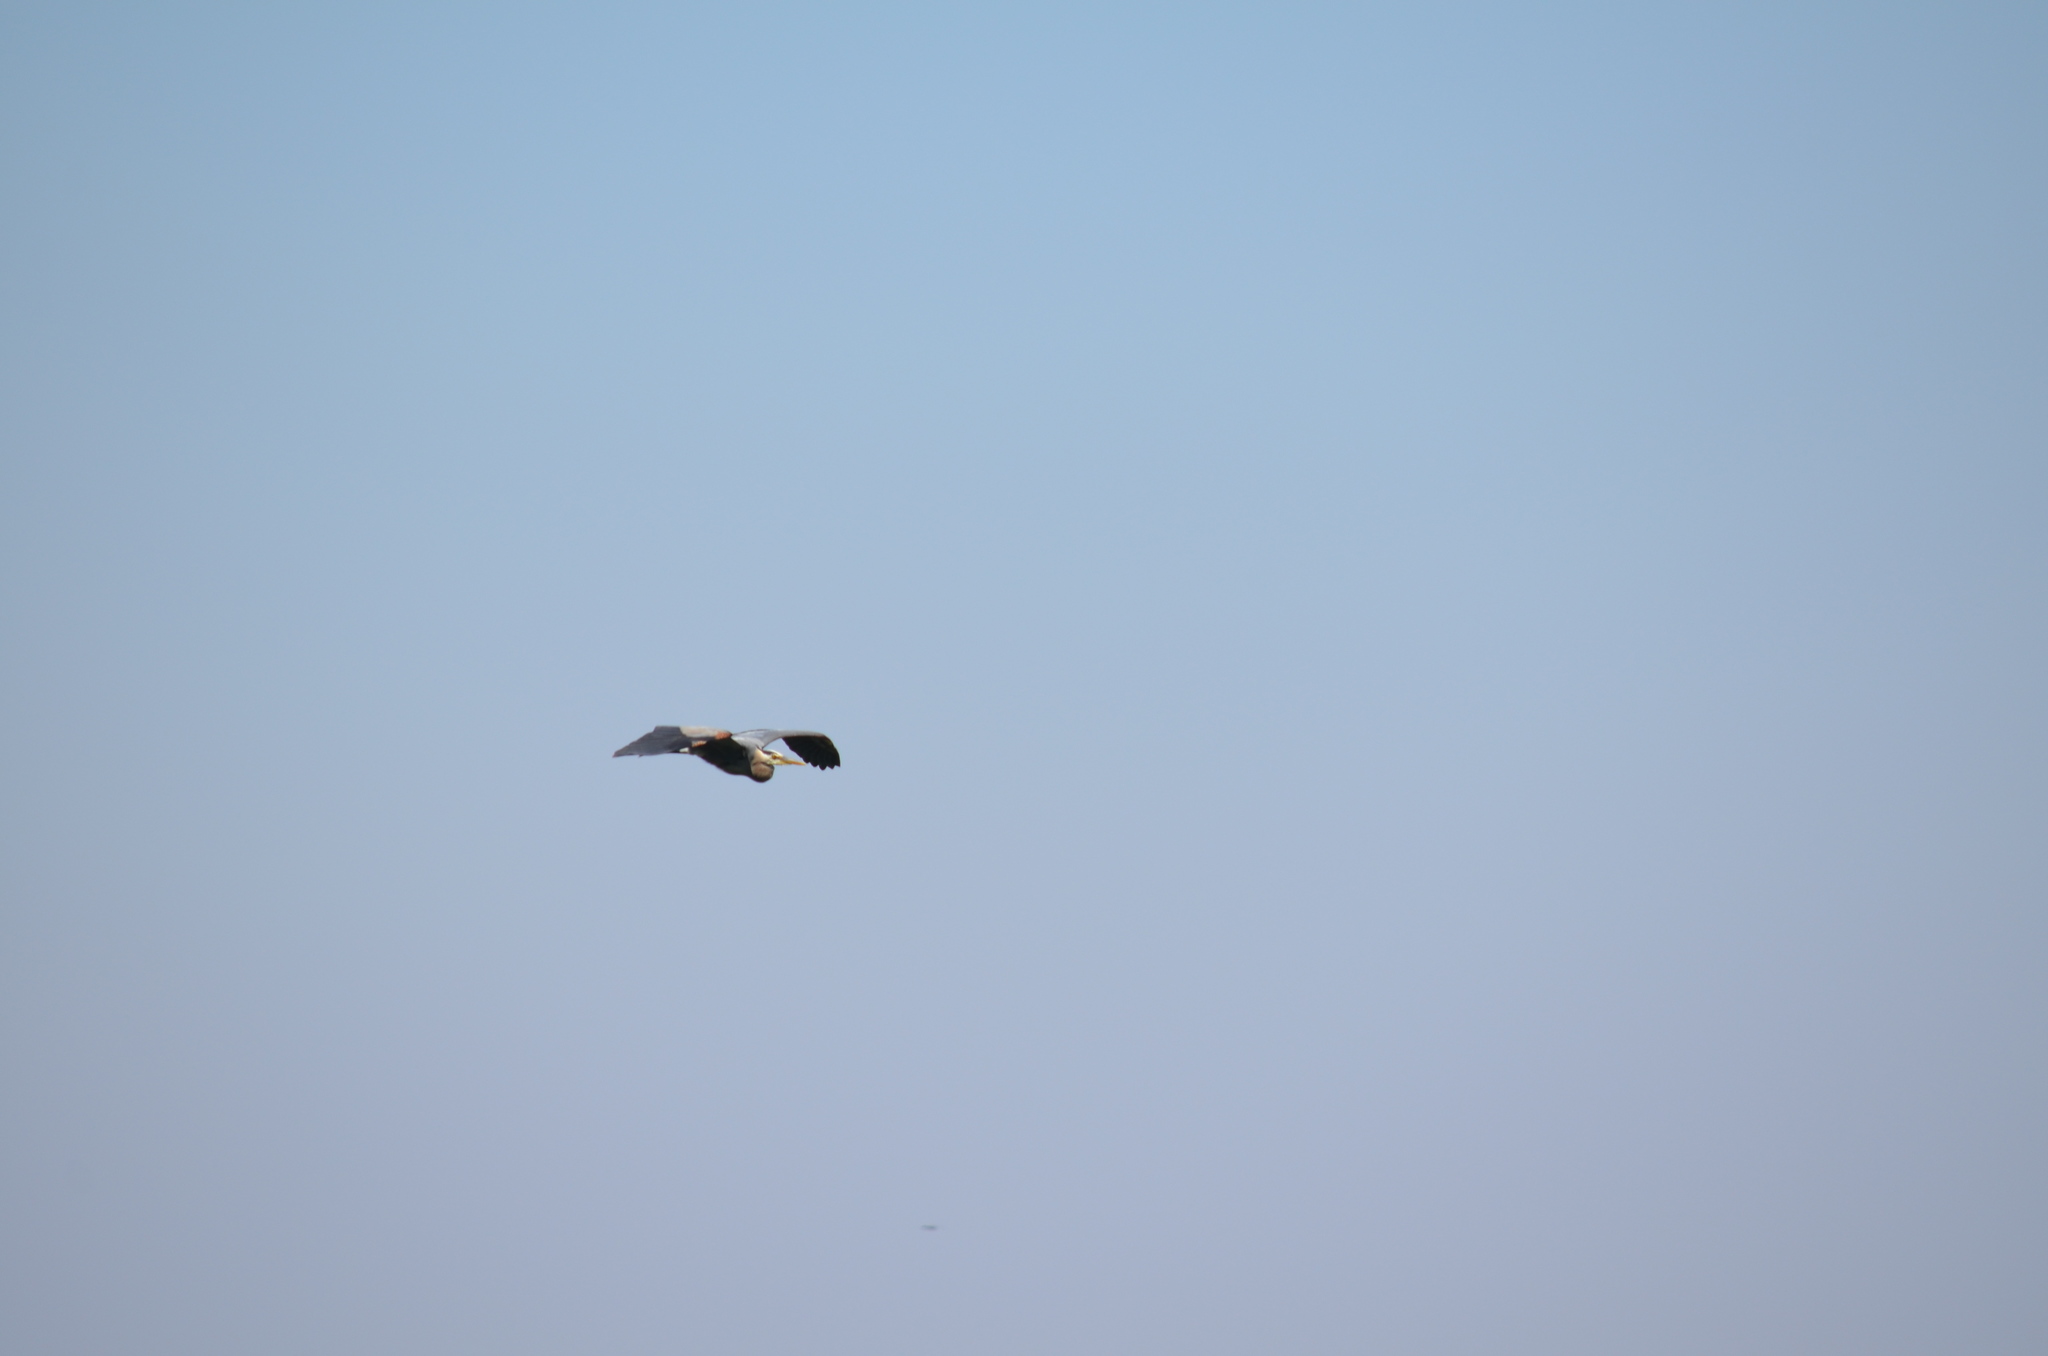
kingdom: Animalia
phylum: Chordata
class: Aves
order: Pelecaniformes
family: Ardeidae
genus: Ardea
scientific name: Ardea herodias
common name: Great blue heron
